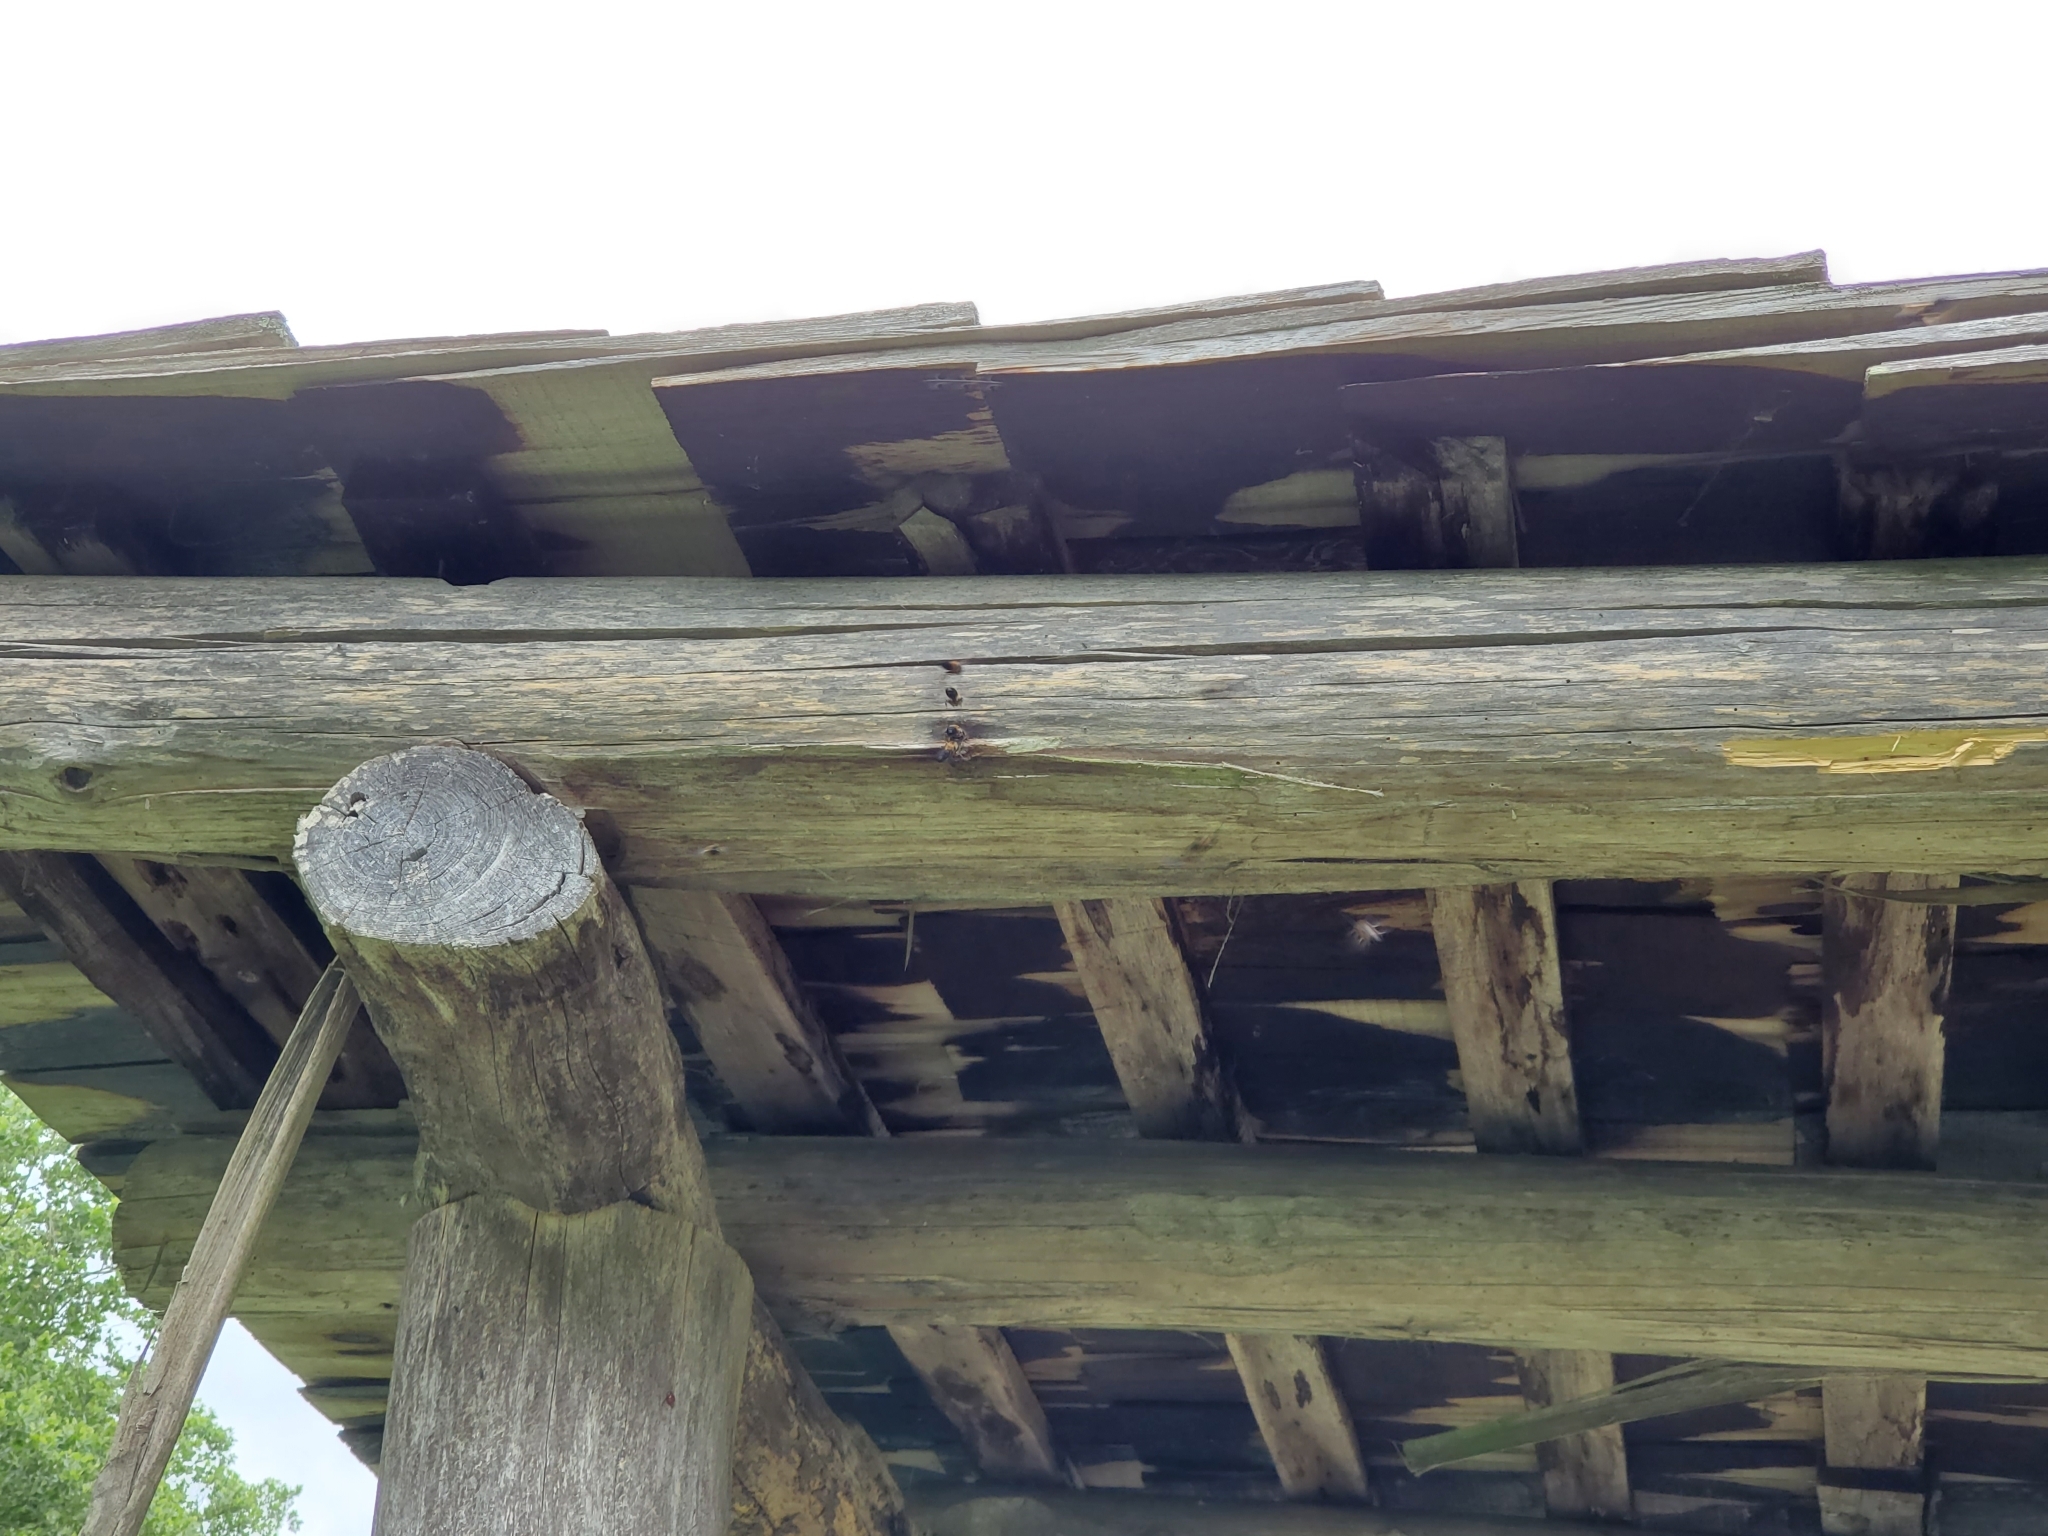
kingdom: Animalia
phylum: Arthropoda
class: Insecta
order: Hymenoptera
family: Megachilidae
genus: Megachile
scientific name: Megachile sculpturalis
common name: Sculptured resin bee
